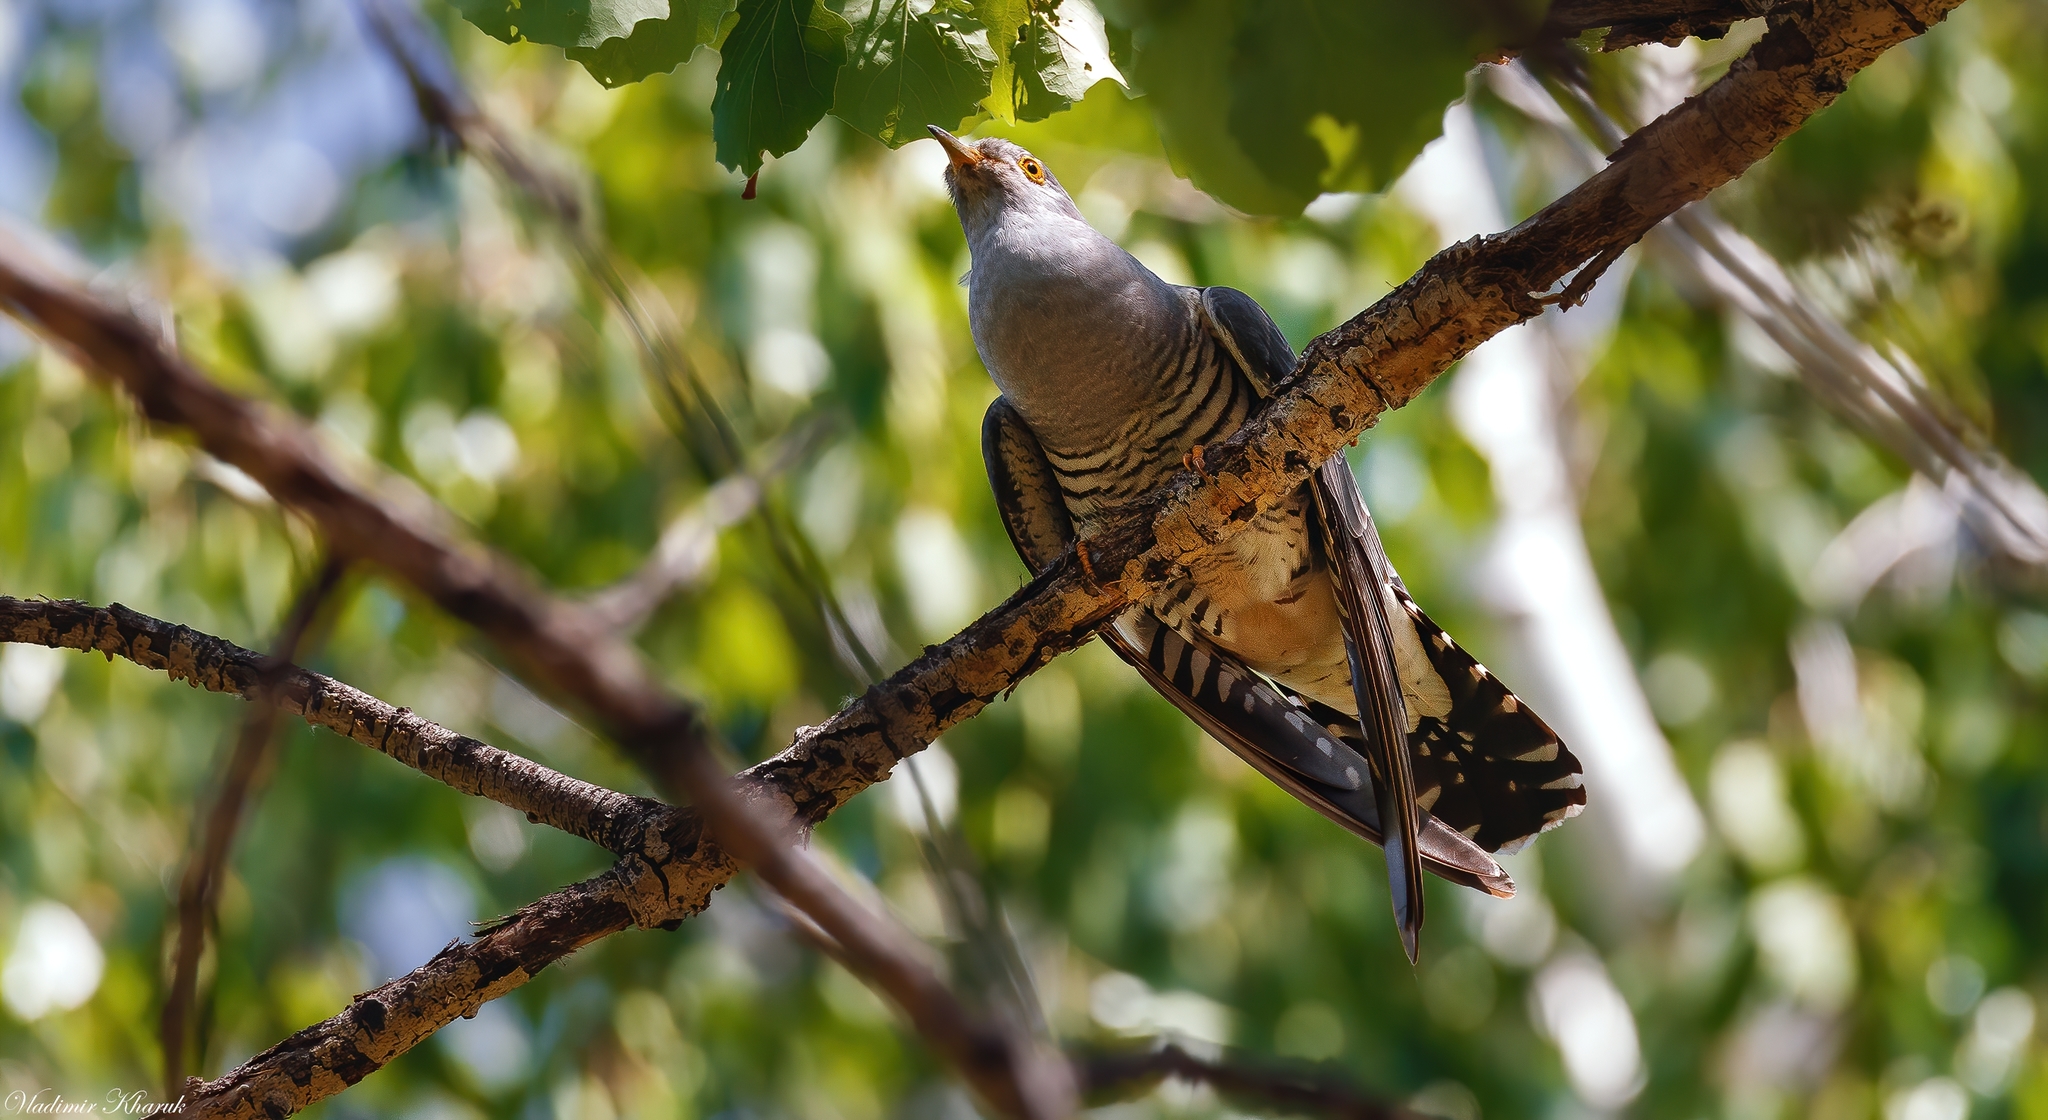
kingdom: Animalia
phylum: Chordata
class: Aves
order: Cuculiformes
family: Cuculidae
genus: Cuculus
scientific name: Cuculus canorus
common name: Common cuckoo
